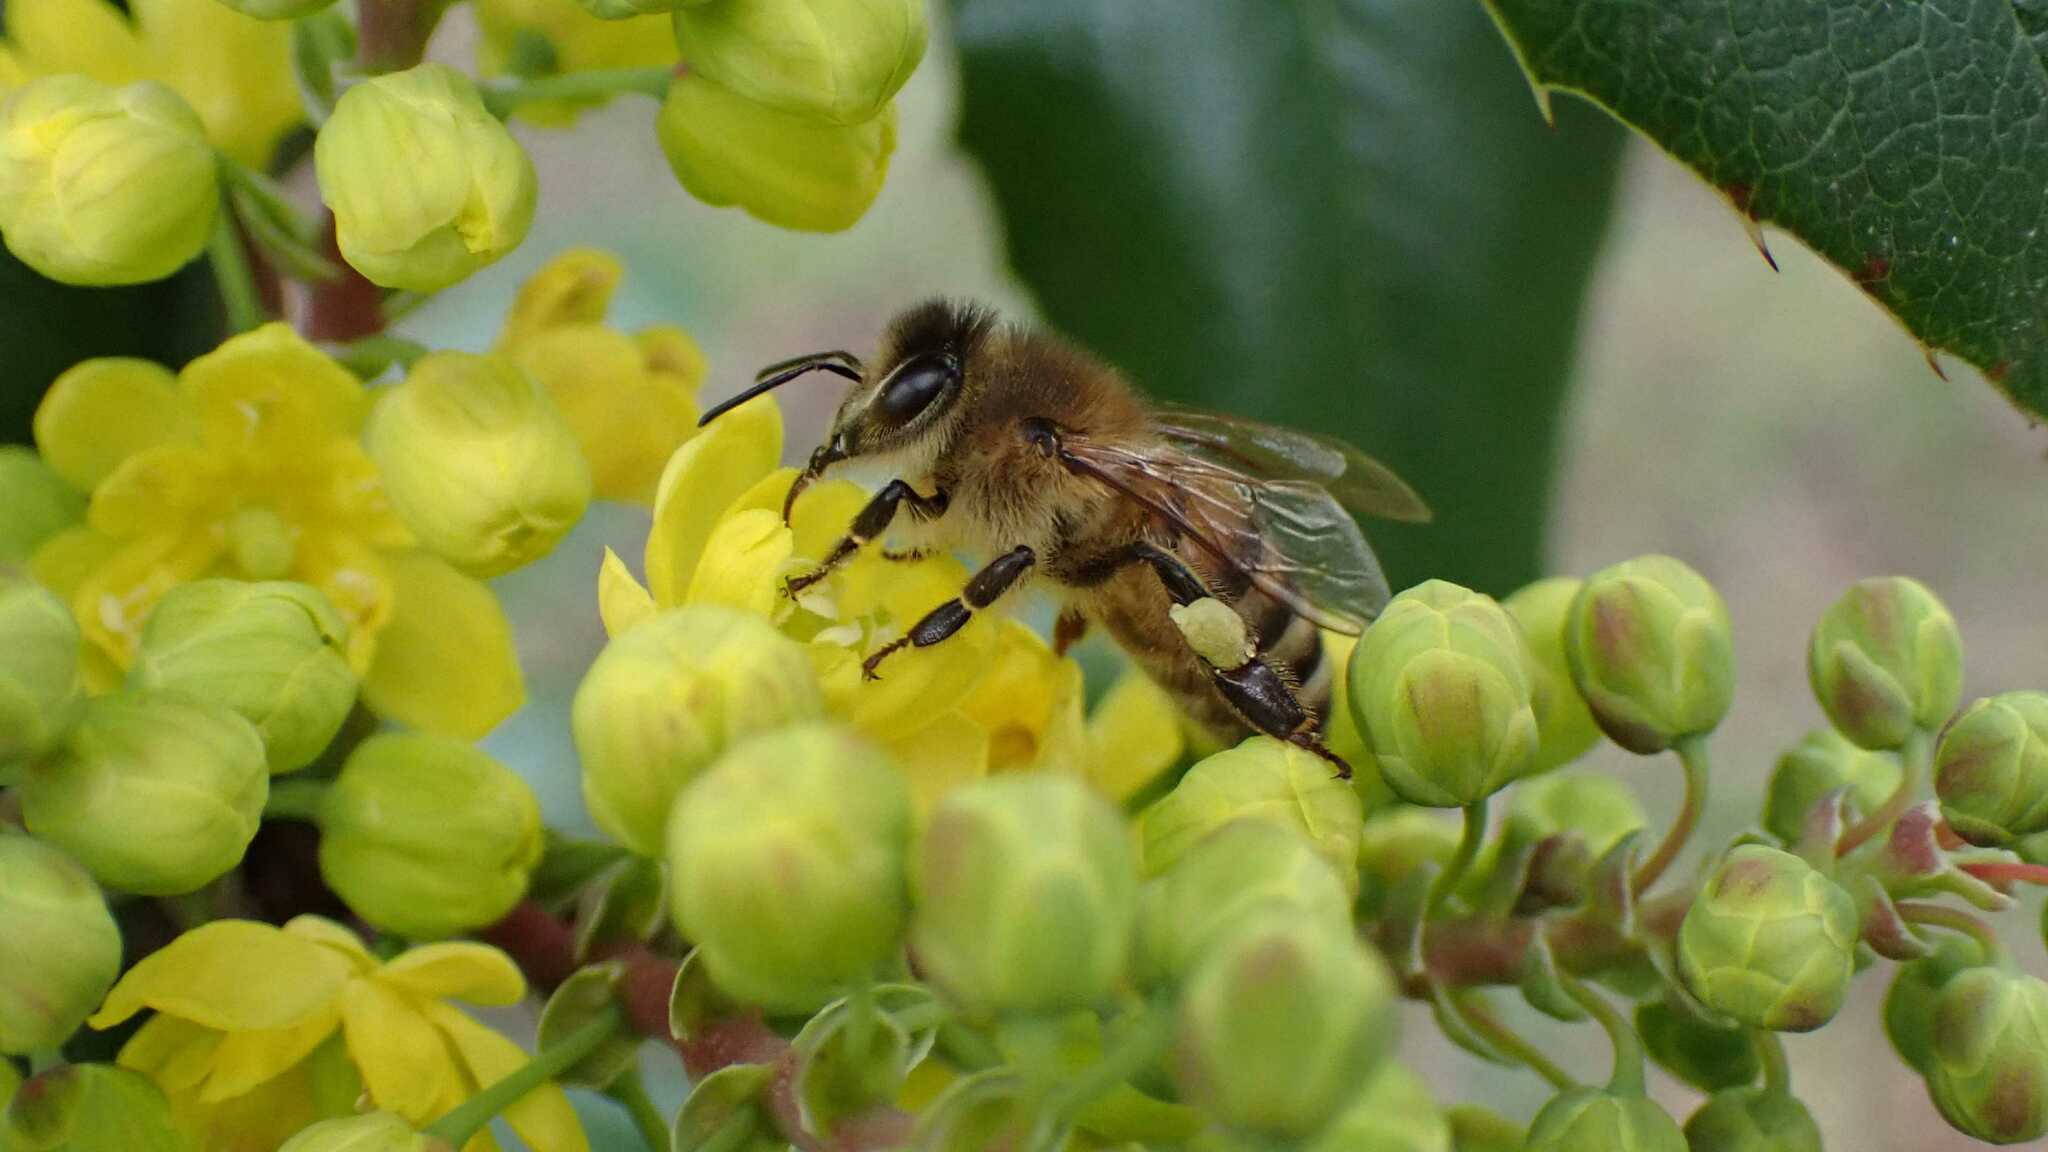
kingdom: Animalia
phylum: Arthropoda
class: Insecta
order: Hymenoptera
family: Apidae
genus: Apis
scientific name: Apis mellifera
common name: Honey bee
